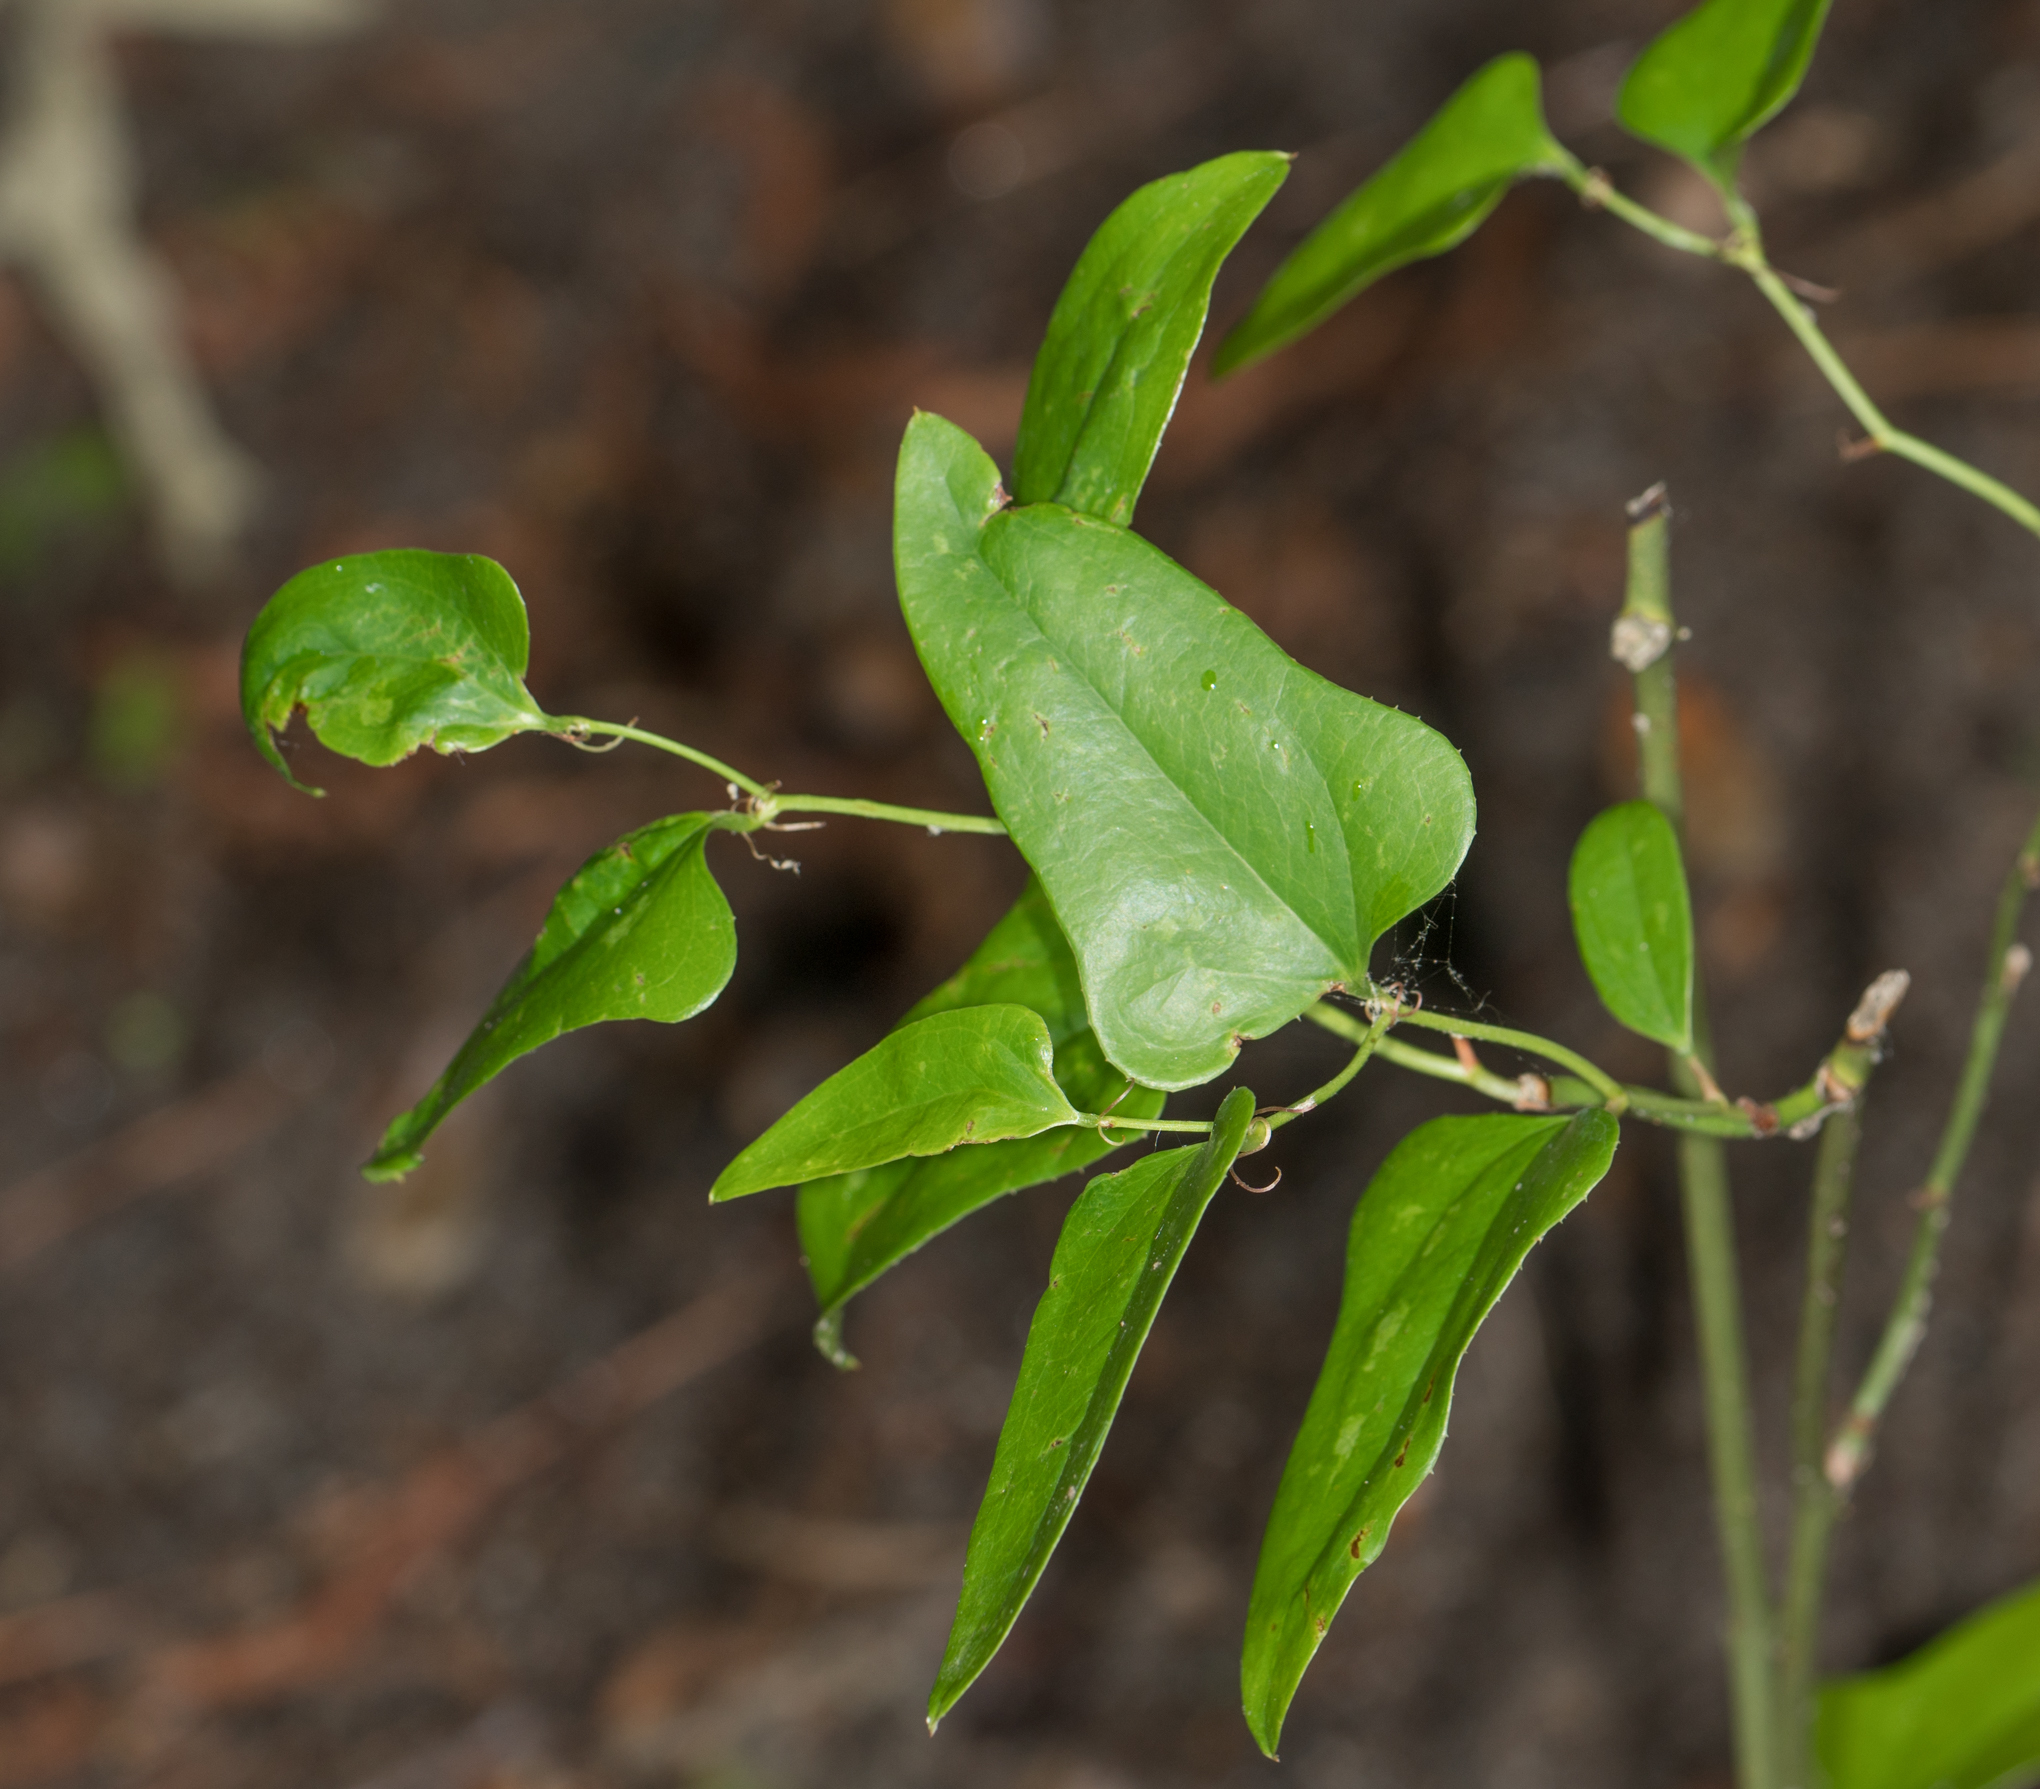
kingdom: Plantae
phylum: Tracheophyta
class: Liliopsida
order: Liliales
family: Smilacaceae
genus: Smilax
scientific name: Smilax bona-nox
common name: Catbrier
